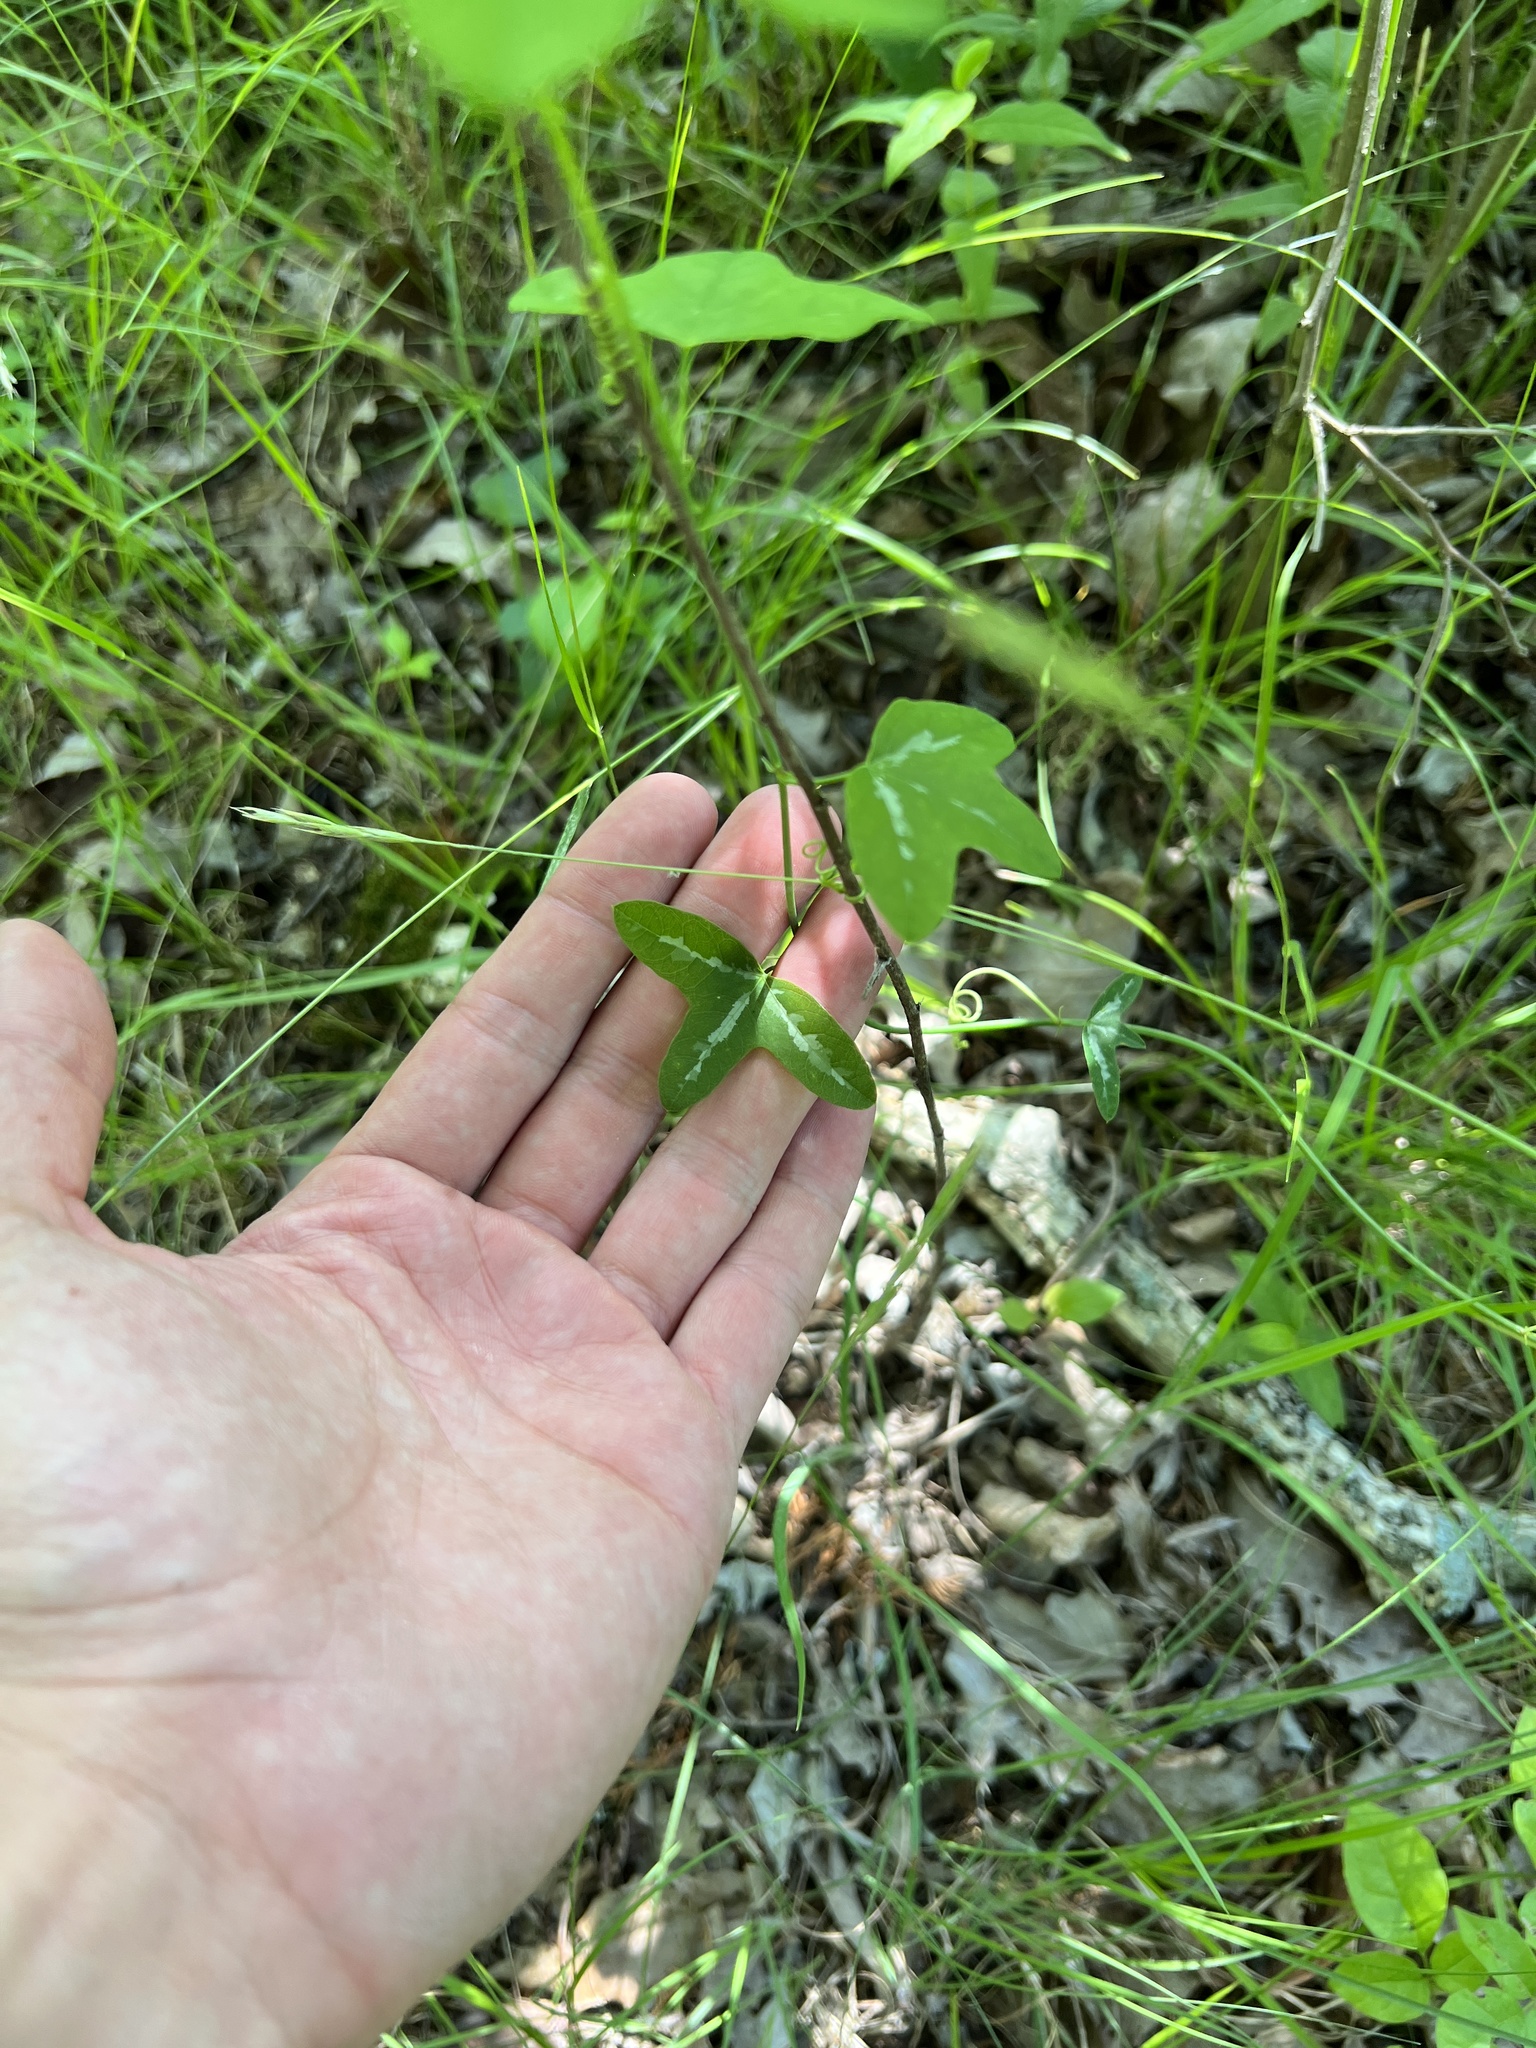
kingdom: Plantae
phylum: Tracheophyta
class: Magnoliopsida
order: Malpighiales
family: Passifloraceae
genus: Passiflora
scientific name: Passiflora lutea
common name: Yellow passionflower
